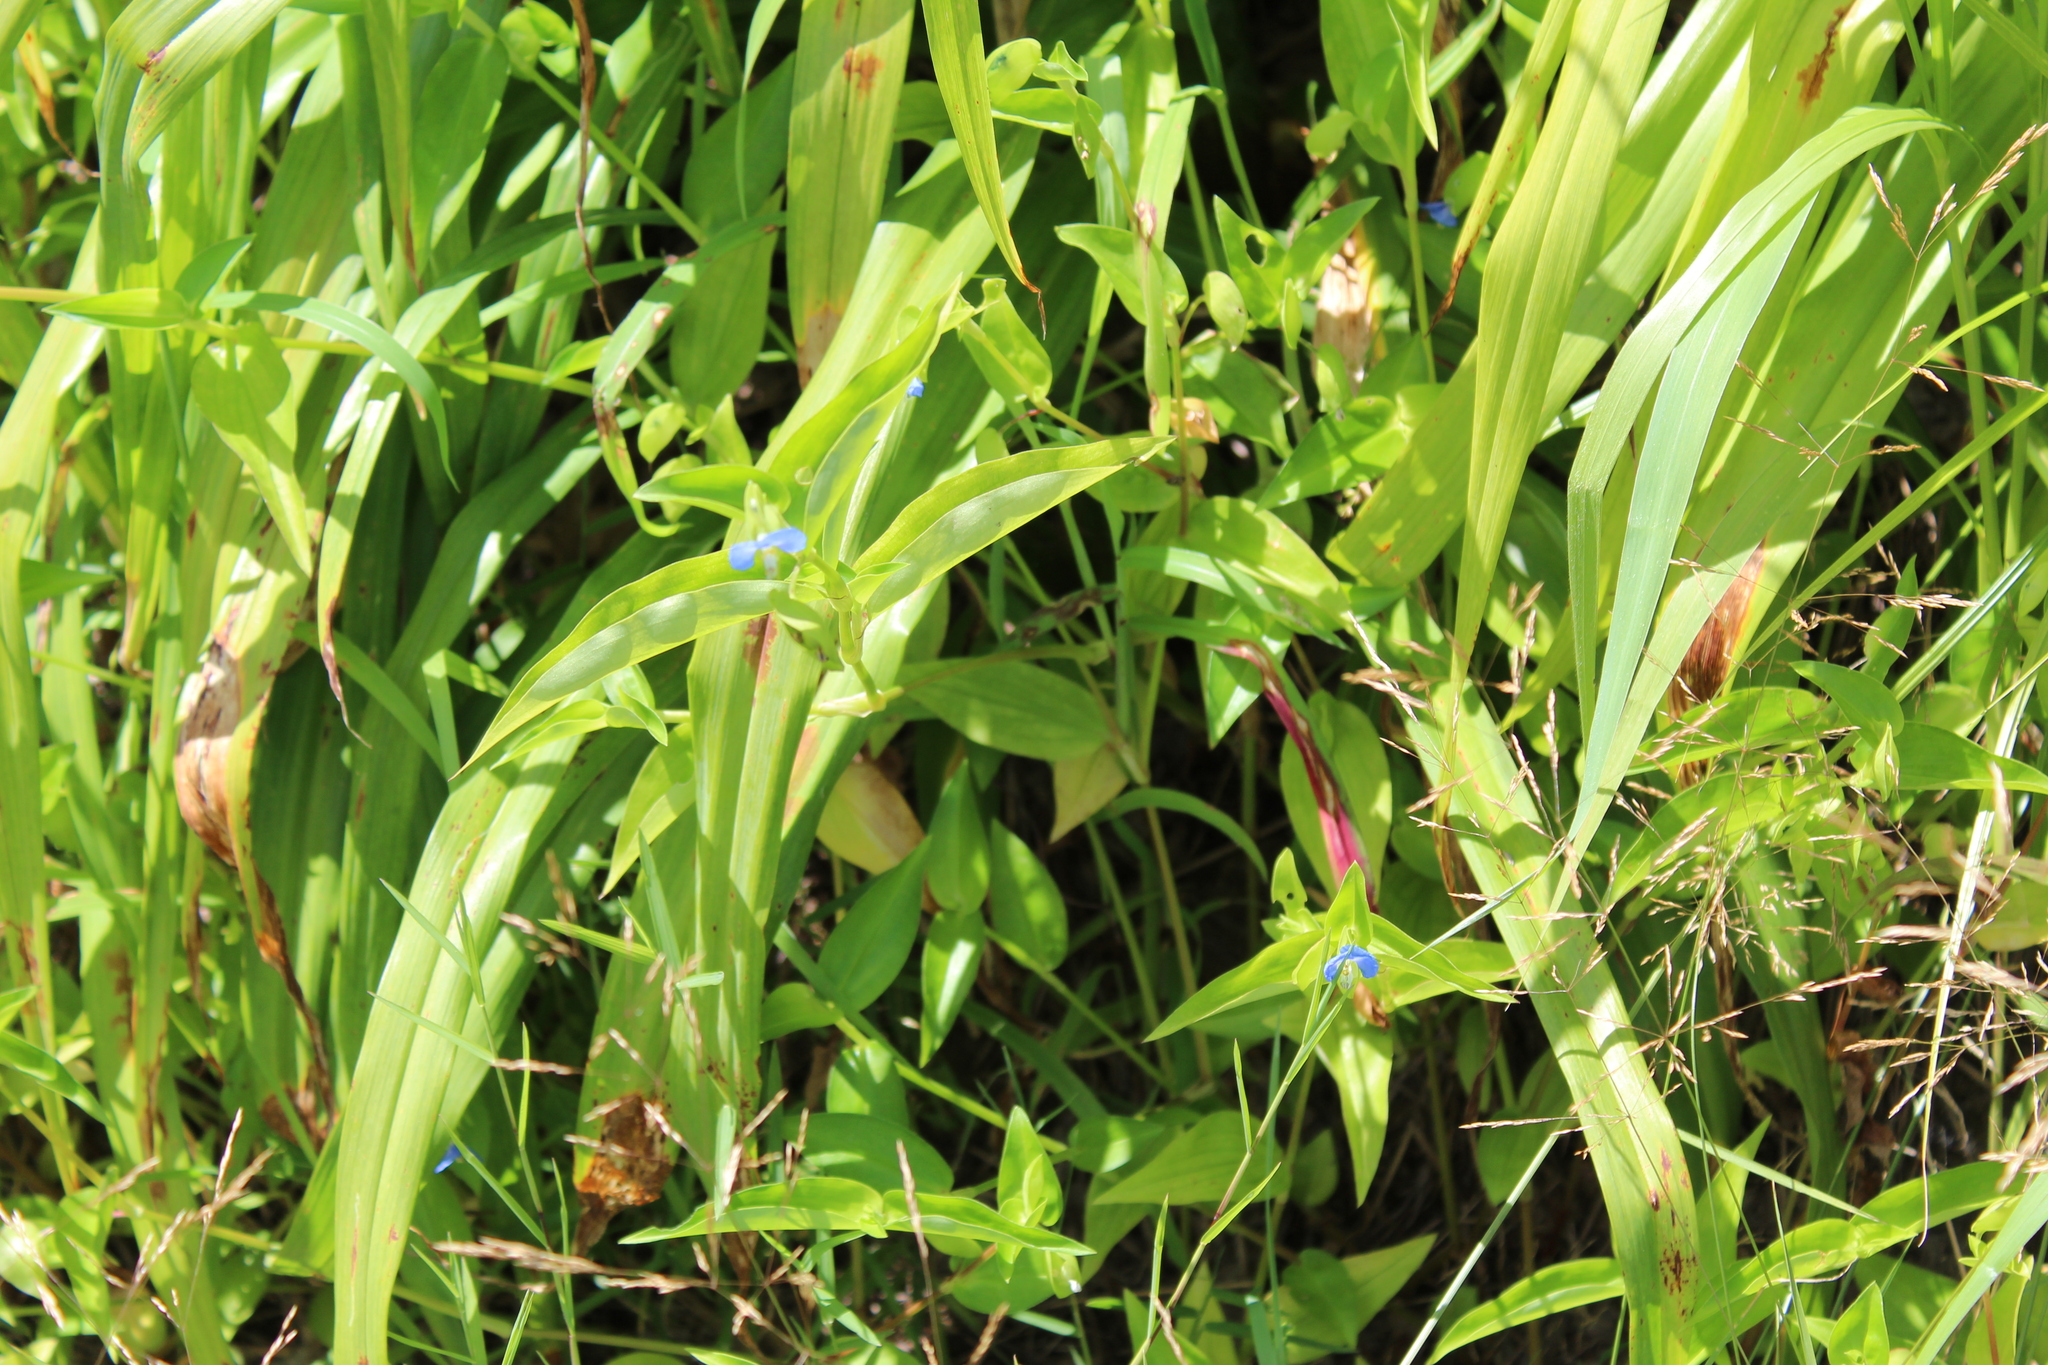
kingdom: Plantae
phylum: Tracheophyta
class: Liliopsida
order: Commelinales
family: Commelinaceae
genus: Commelina
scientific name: Commelina communis
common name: Asiatic dayflower
